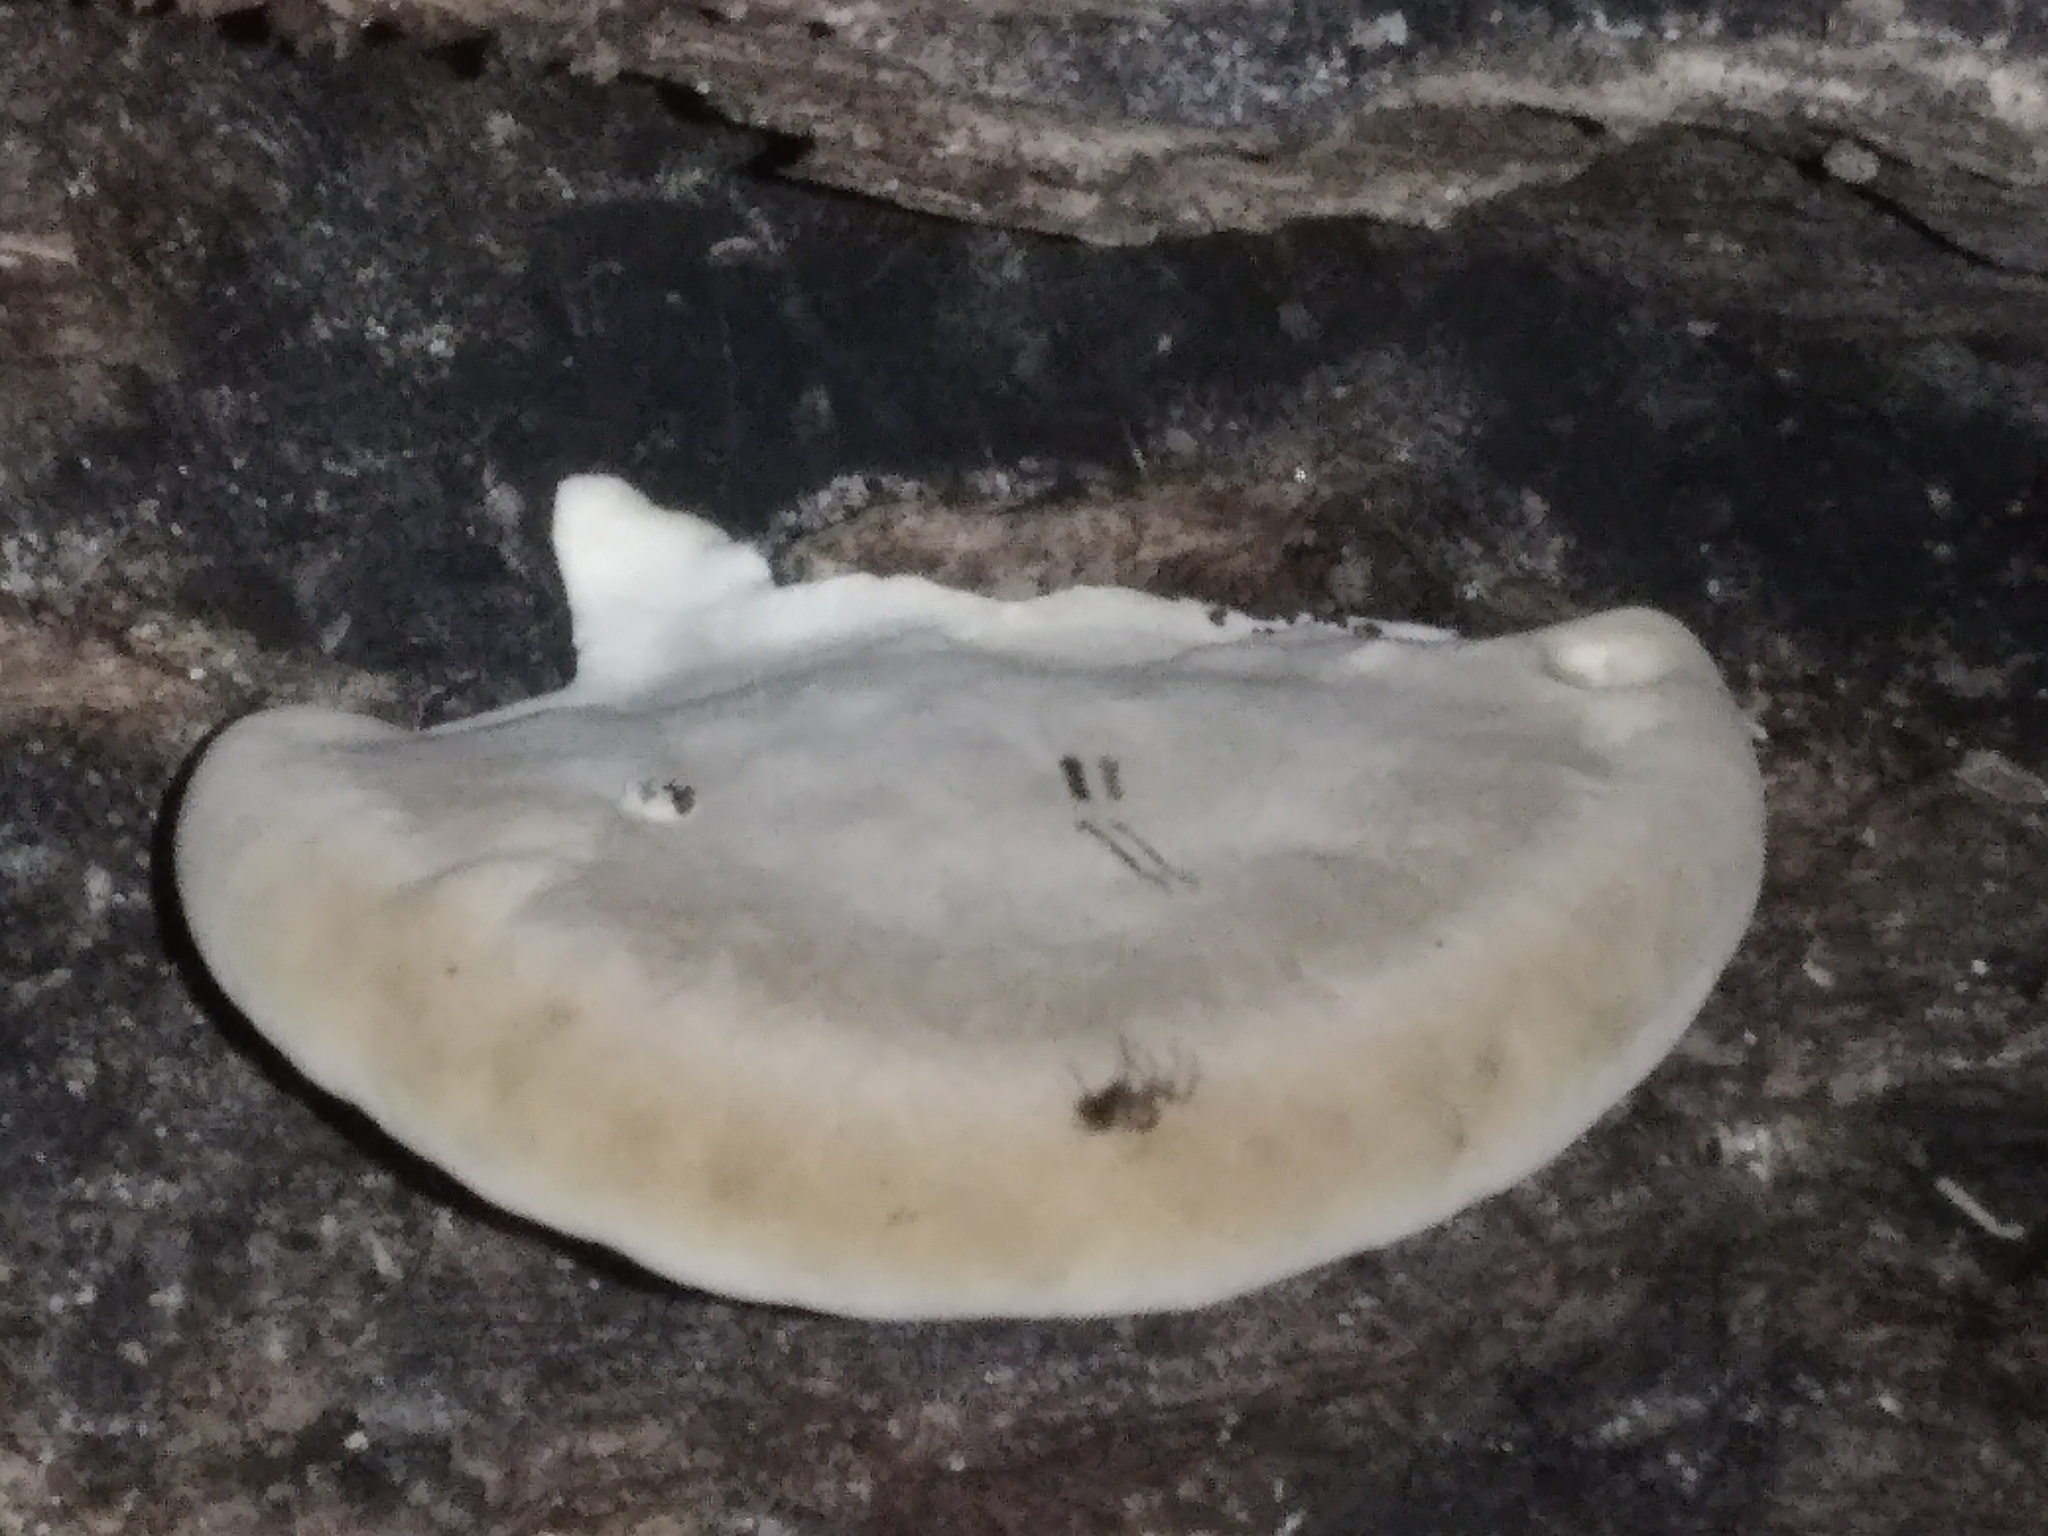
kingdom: Fungi
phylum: Basidiomycota
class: Agaricomycetes
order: Polyporales
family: Fomitopsidaceae
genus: Fomitopsis
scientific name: Fomitopsis betulina
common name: Birch polypore
